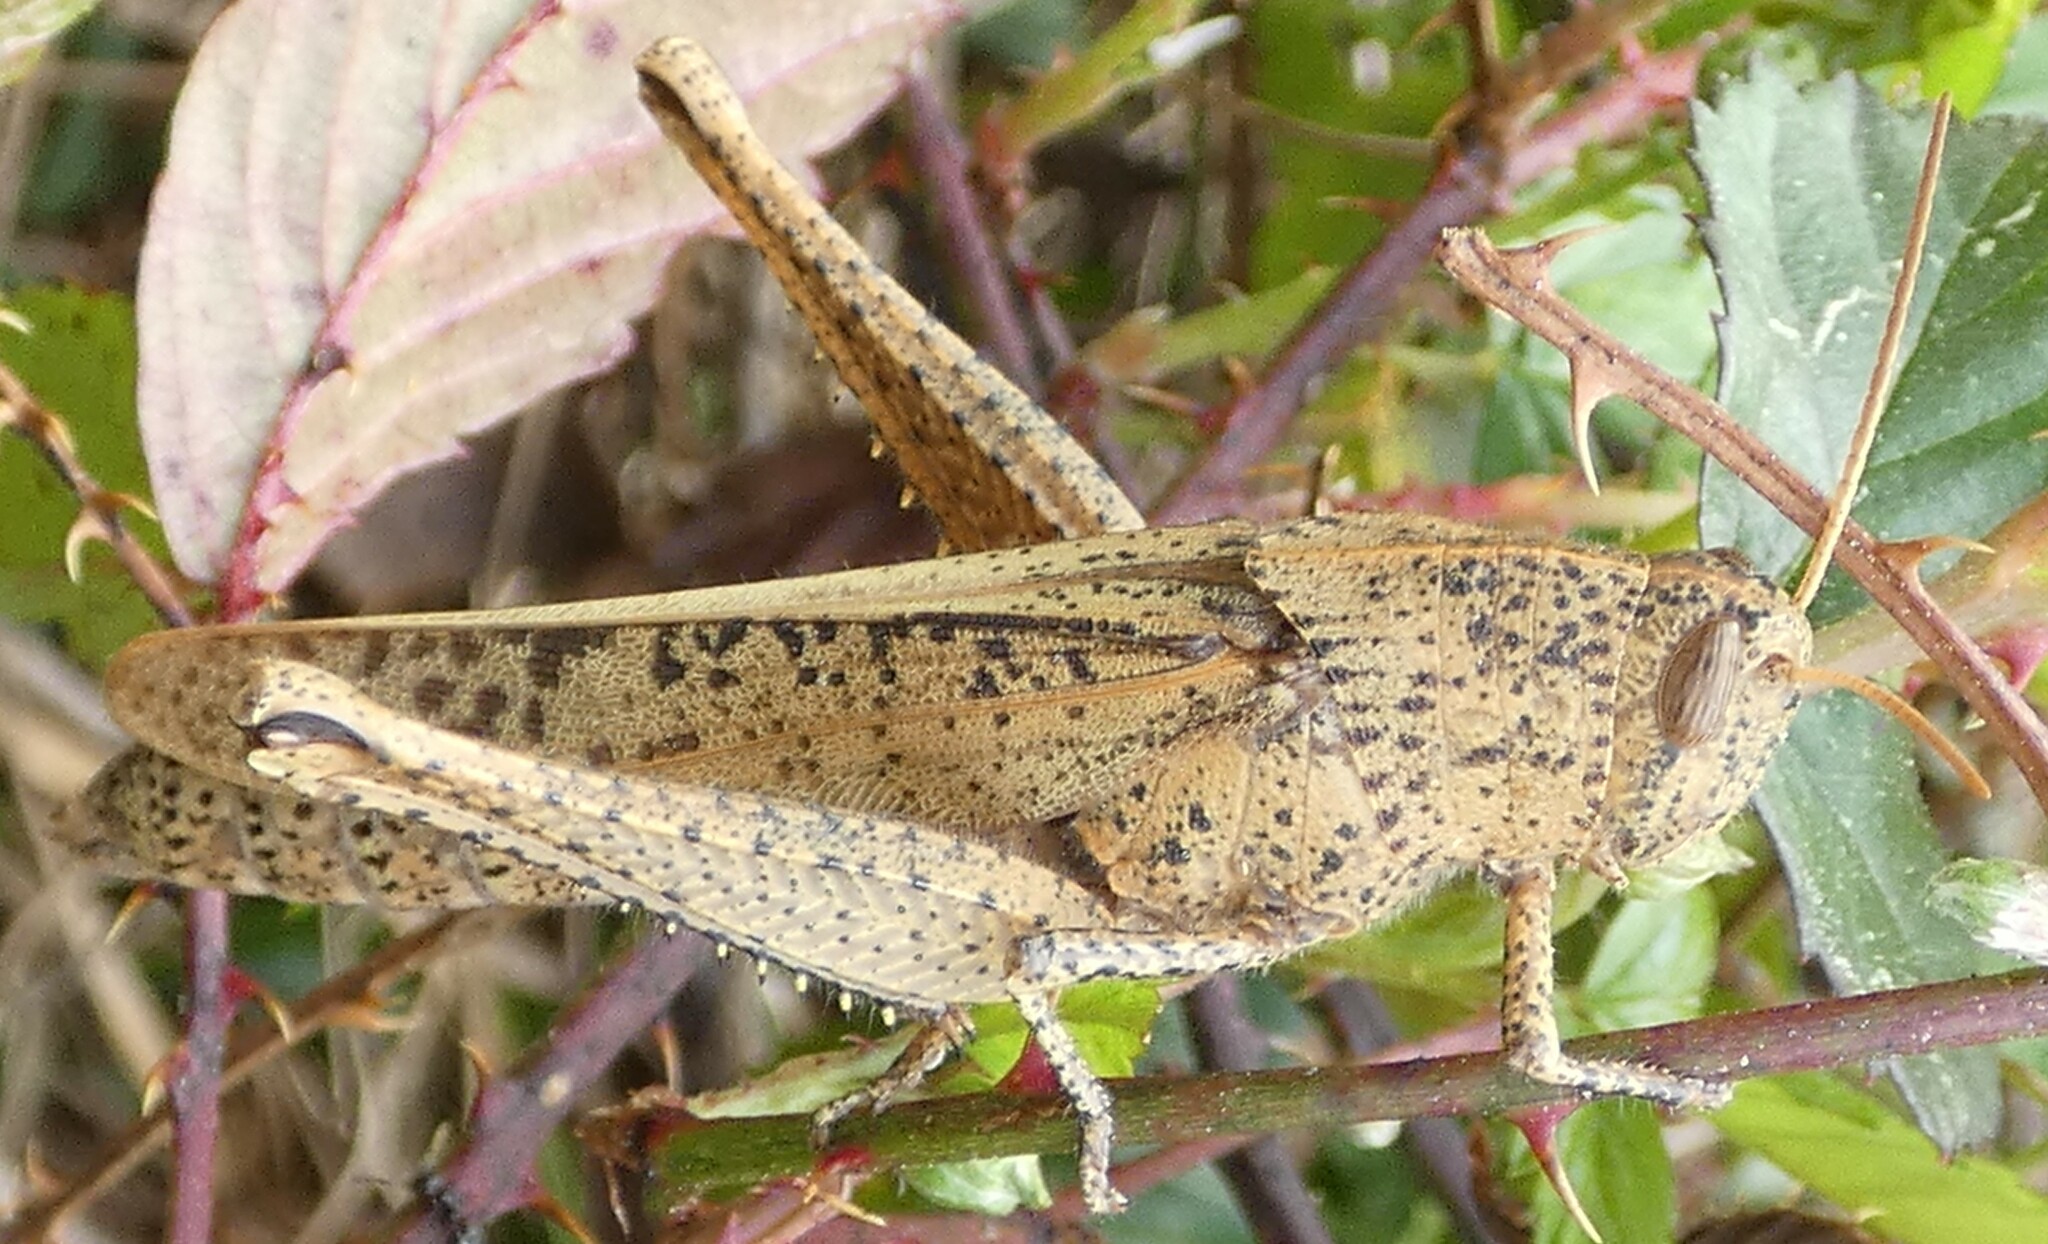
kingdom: Animalia
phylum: Arthropoda
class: Insecta
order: Orthoptera
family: Acrididae
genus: Schistocerca
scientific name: Schistocerca damnifica
